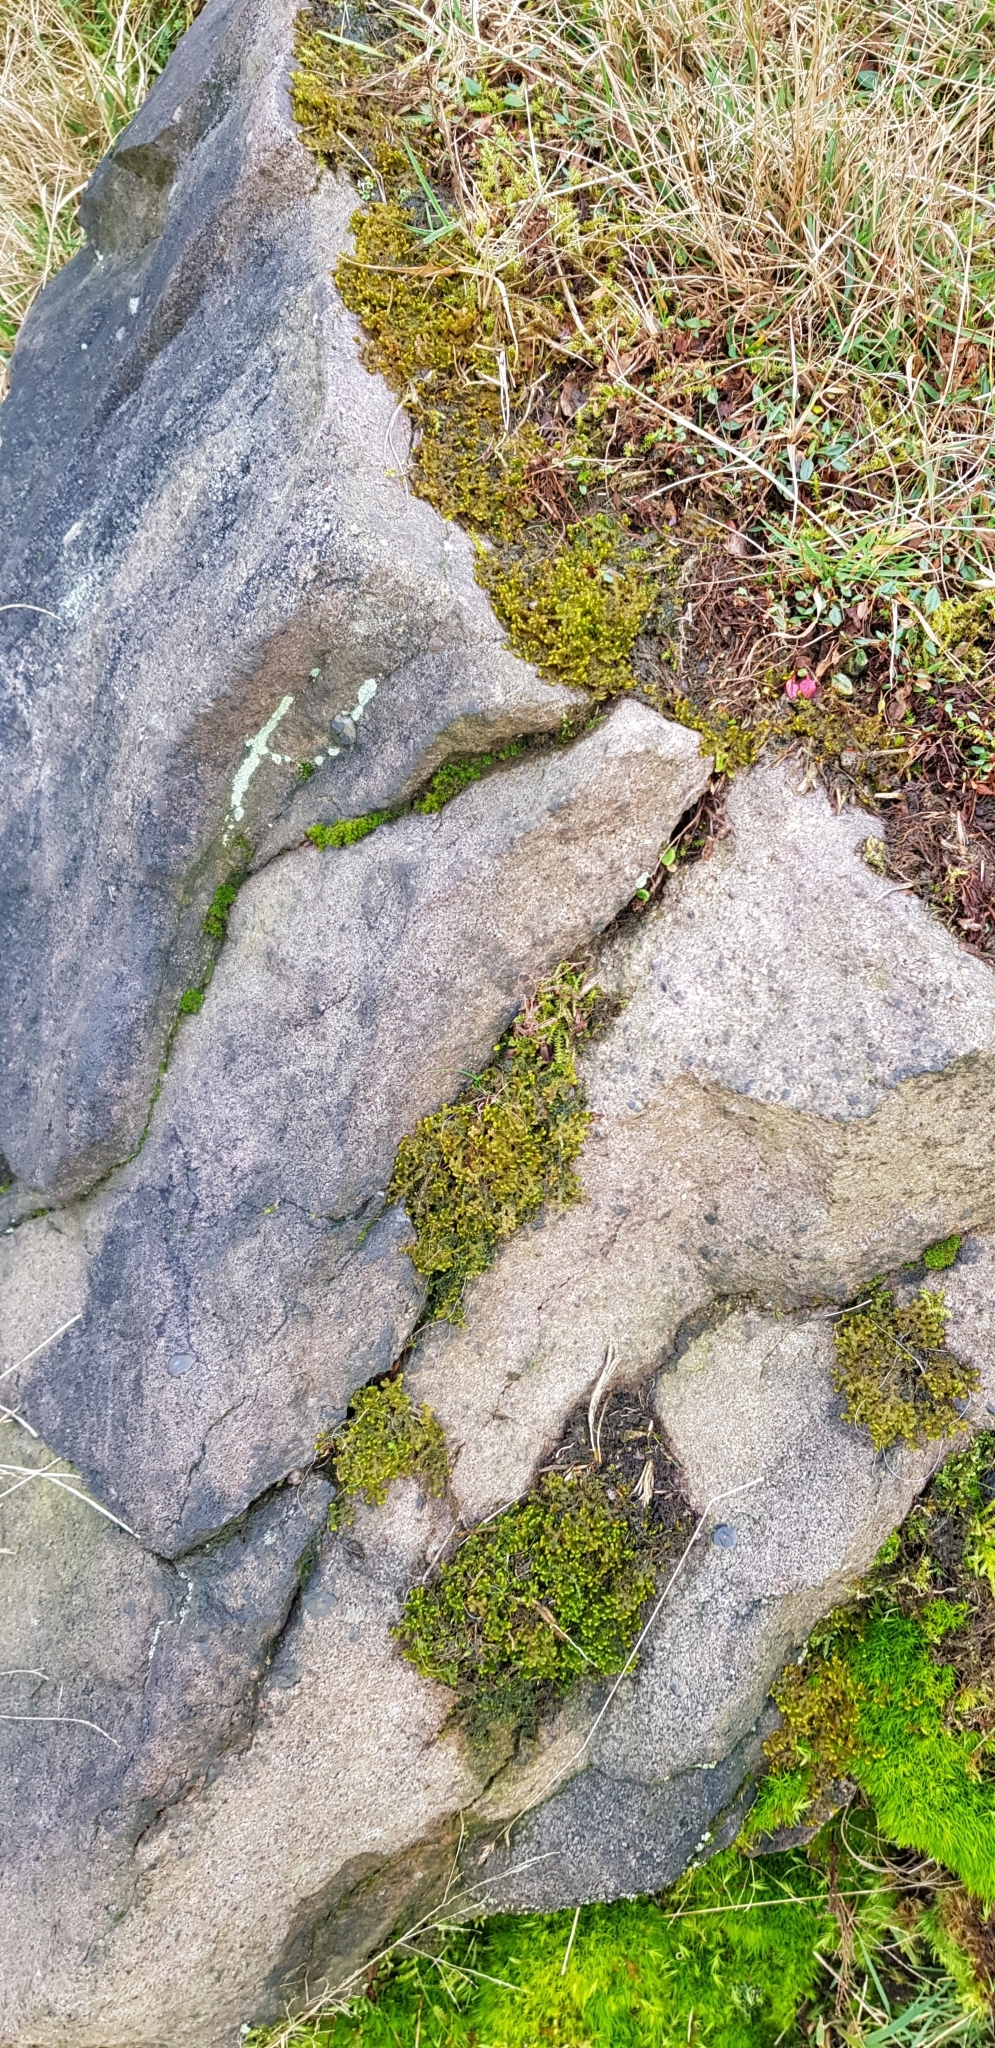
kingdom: Plantae
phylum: Marchantiophyta
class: Jungermanniopsida
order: Ptilidiales
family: Ptilidiaceae
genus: Ptilidium
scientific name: Ptilidium ciliare
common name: Ciliate fringewort
